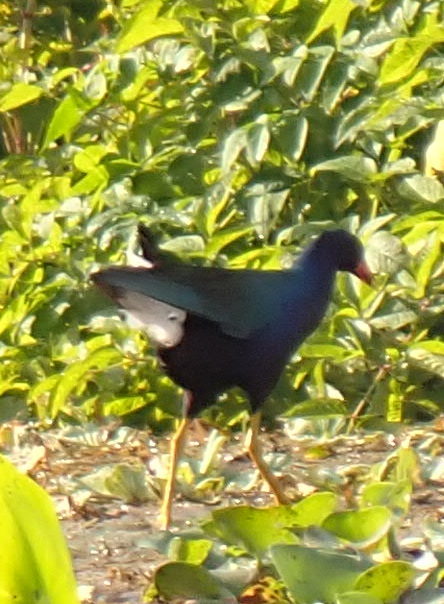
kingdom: Animalia
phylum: Chordata
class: Aves
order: Gruiformes
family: Rallidae
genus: Porphyrio
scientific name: Porphyrio martinica
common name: Purple gallinule
